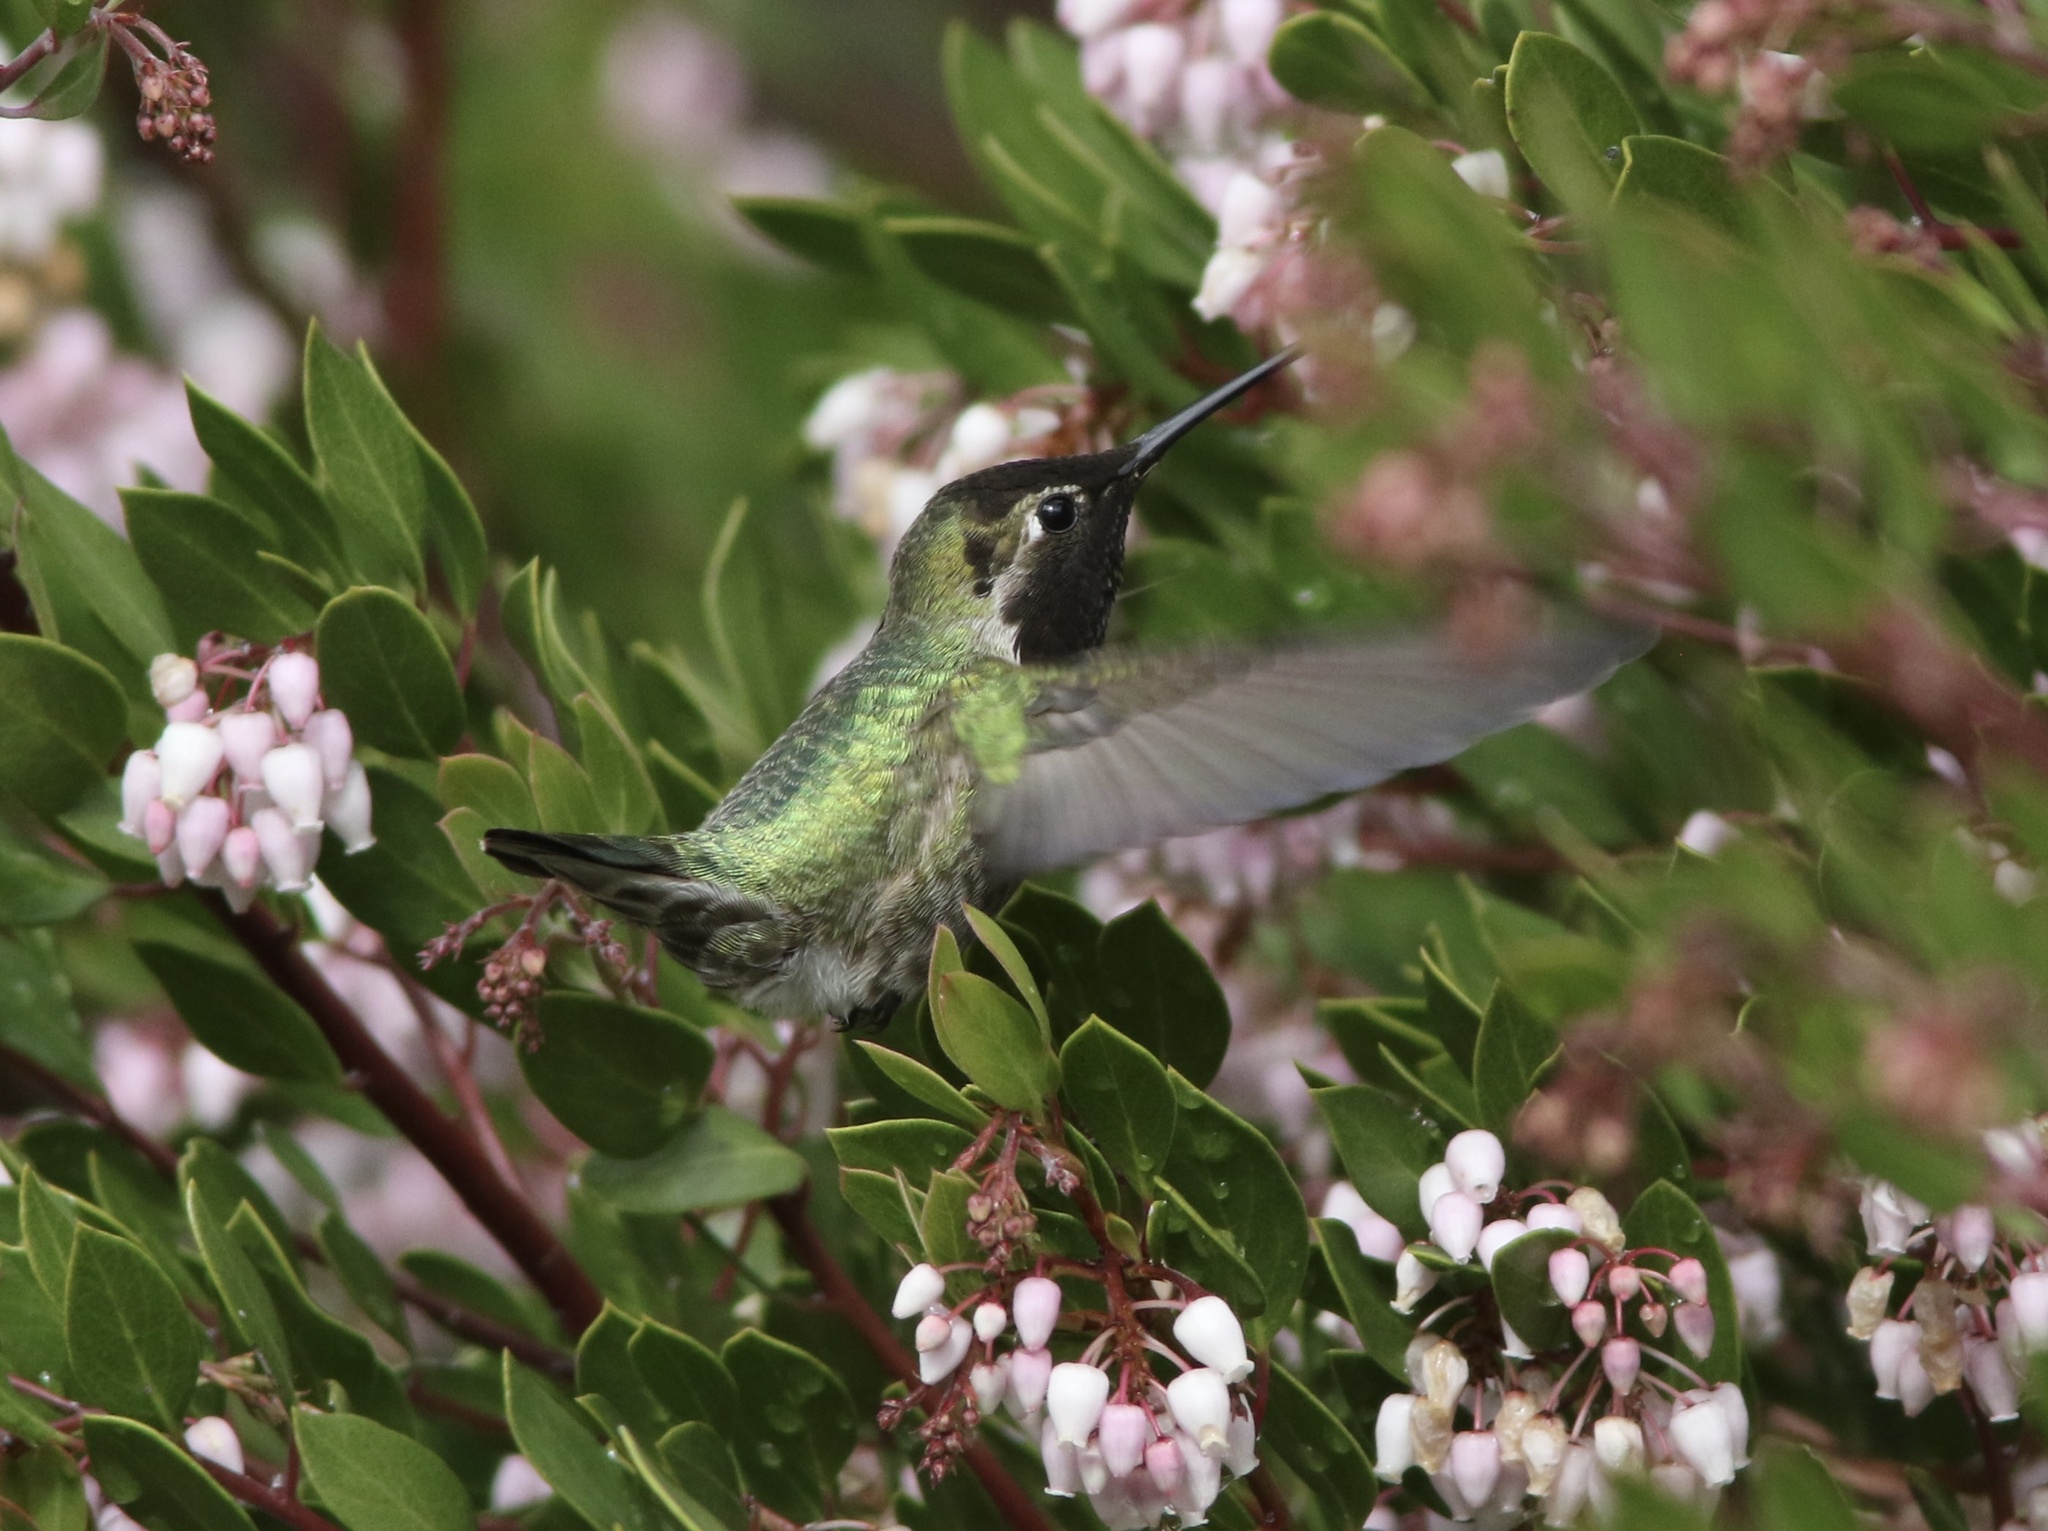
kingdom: Animalia
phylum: Chordata
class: Aves
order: Apodiformes
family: Trochilidae
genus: Calypte
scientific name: Calypte anna
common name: Anna's hummingbird
